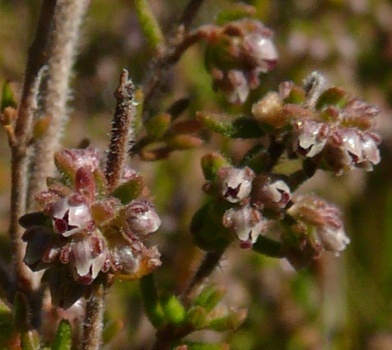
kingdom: Plantae
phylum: Tracheophyta
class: Magnoliopsida
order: Ericales
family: Ericaceae
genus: Erica
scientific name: Erica hispidula
